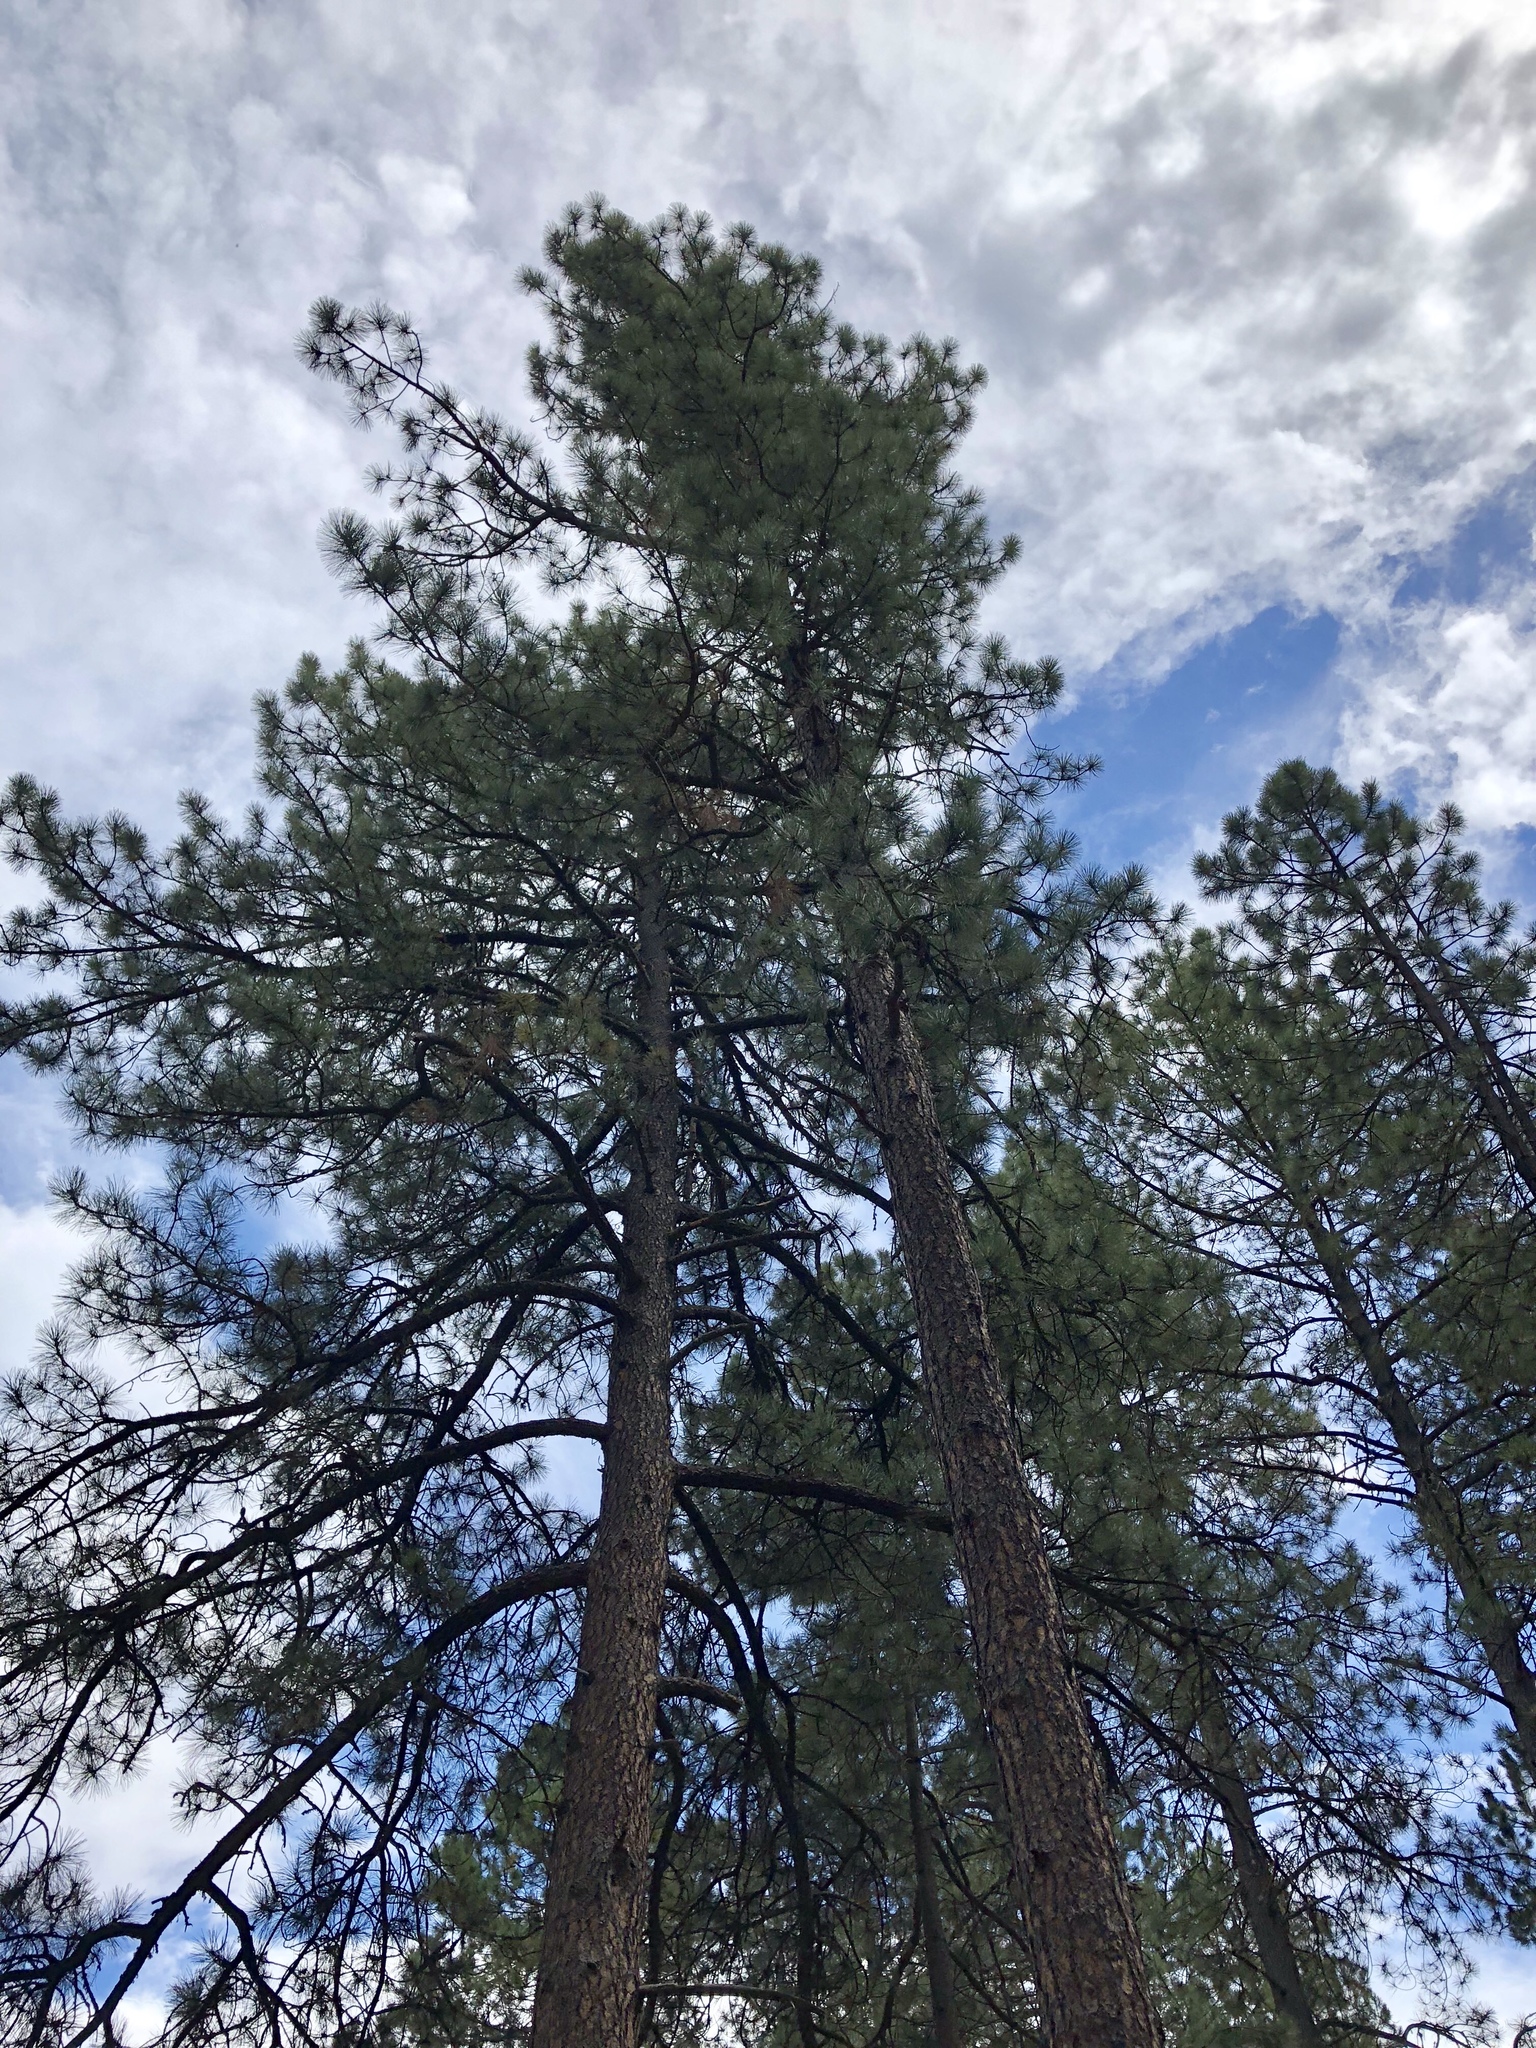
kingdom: Plantae
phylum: Tracheophyta
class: Pinopsida
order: Pinales
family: Pinaceae
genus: Pinus
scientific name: Pinus ponderosa
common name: Western yellow-pine
